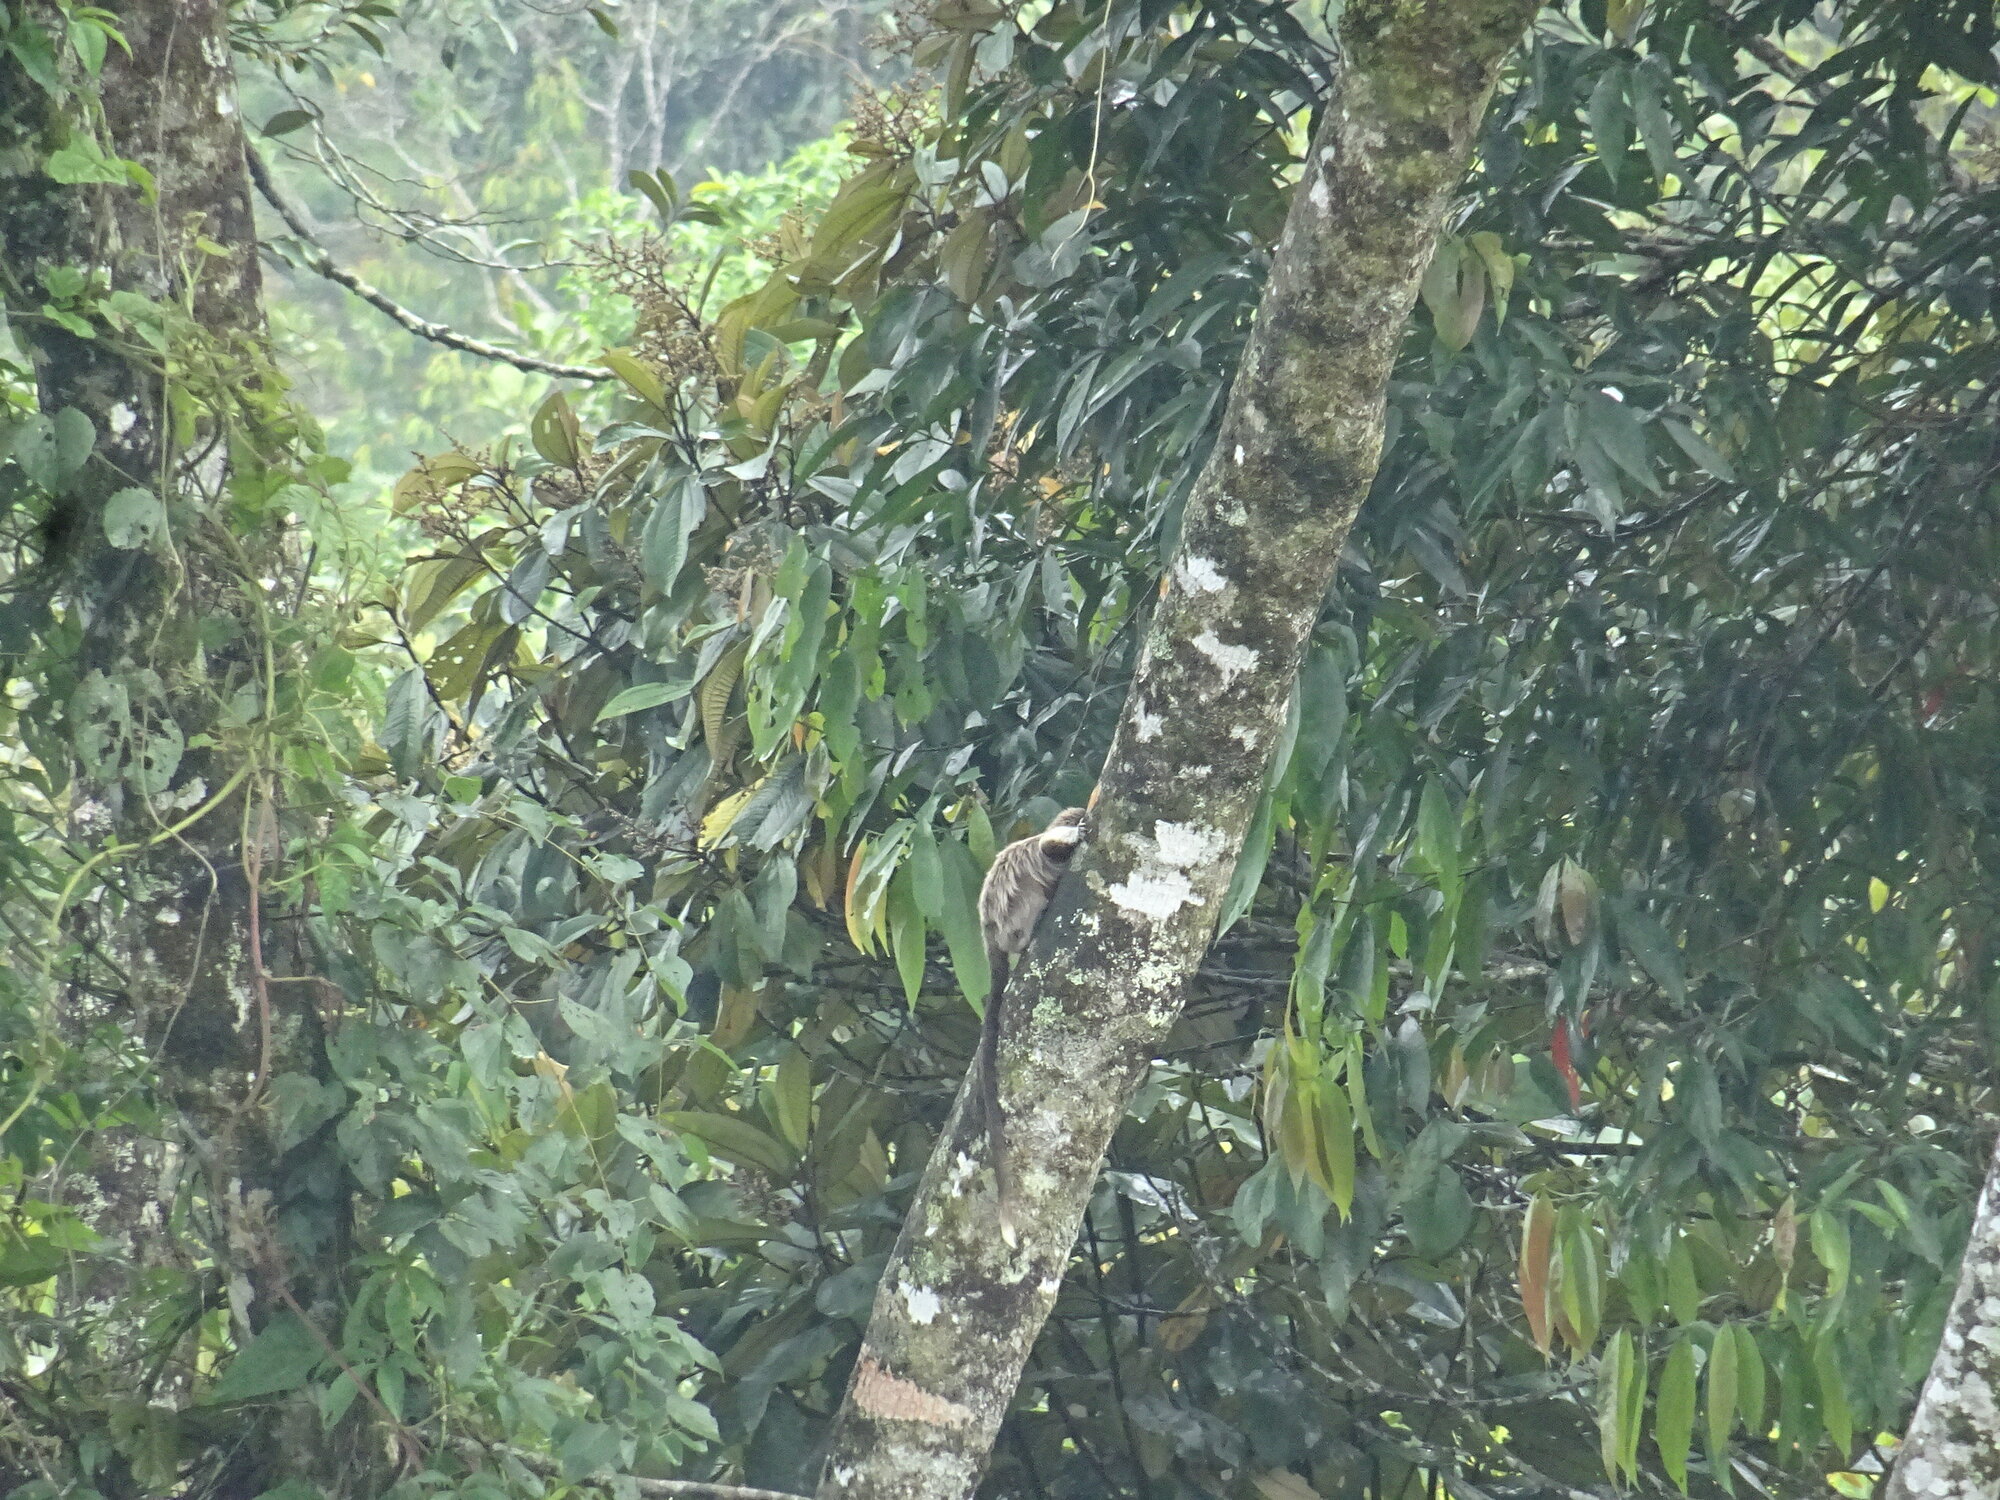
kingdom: Animalia
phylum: Chordata
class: Mammalia
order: Primates
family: Callitrichidae
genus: Saguinus
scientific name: Saguinus leucopus
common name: White-footed tamarin
